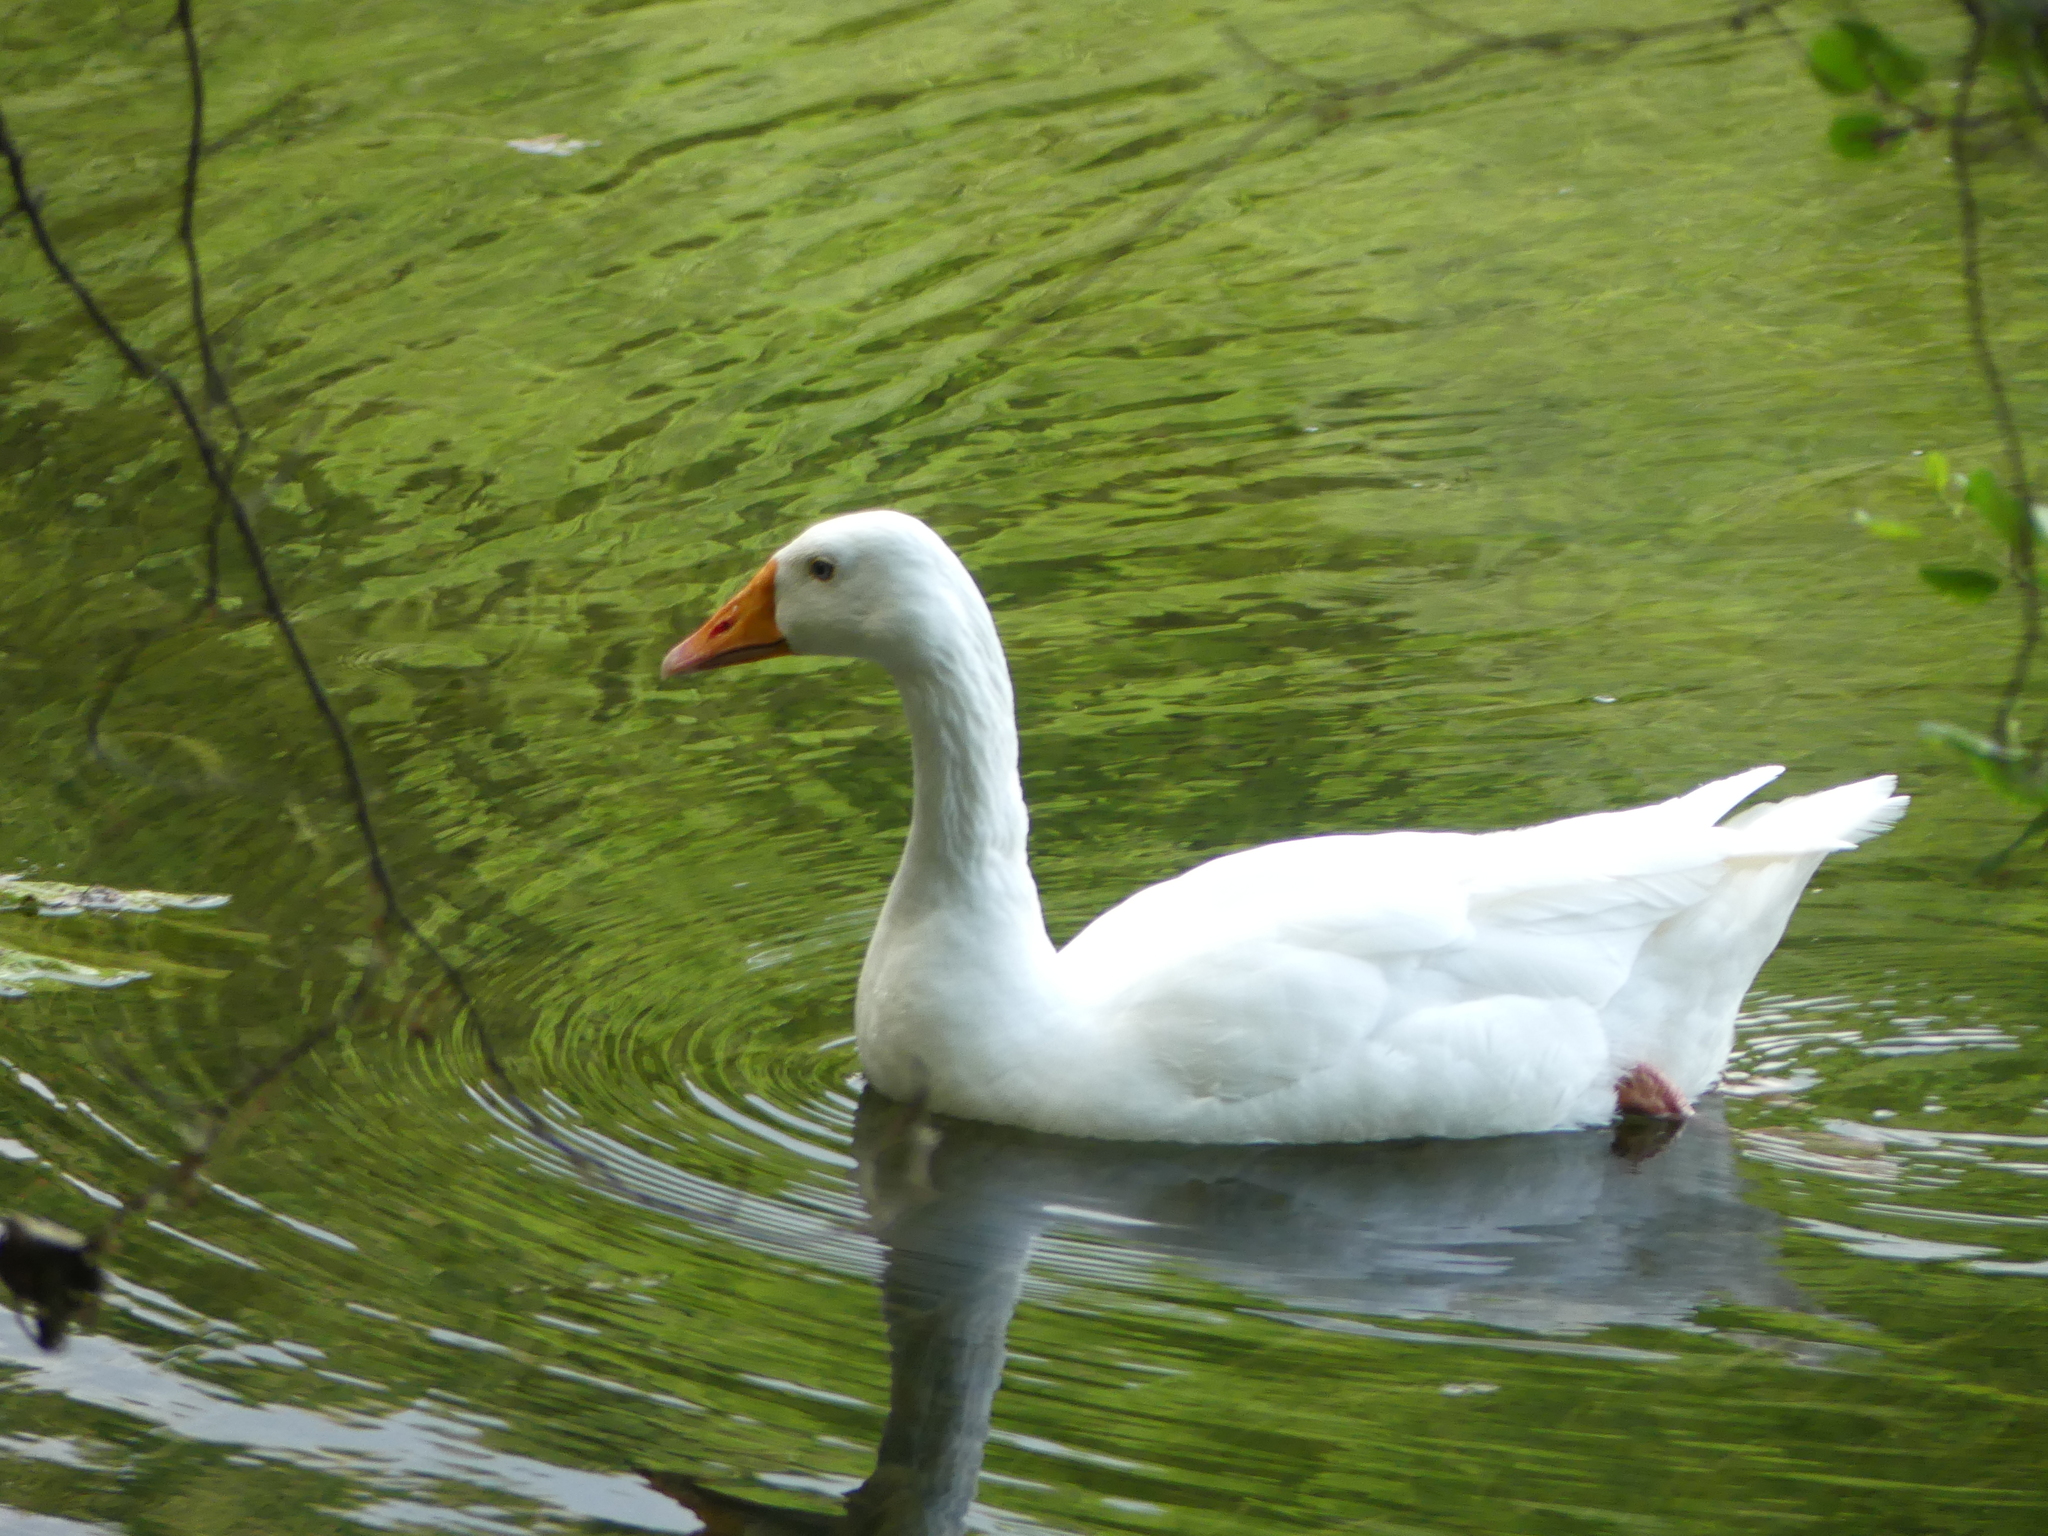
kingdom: Animalia
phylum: Chordata
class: Aves
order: Anseriformes
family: Anatidae
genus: Anser
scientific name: Anser anser
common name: Greylag goose
